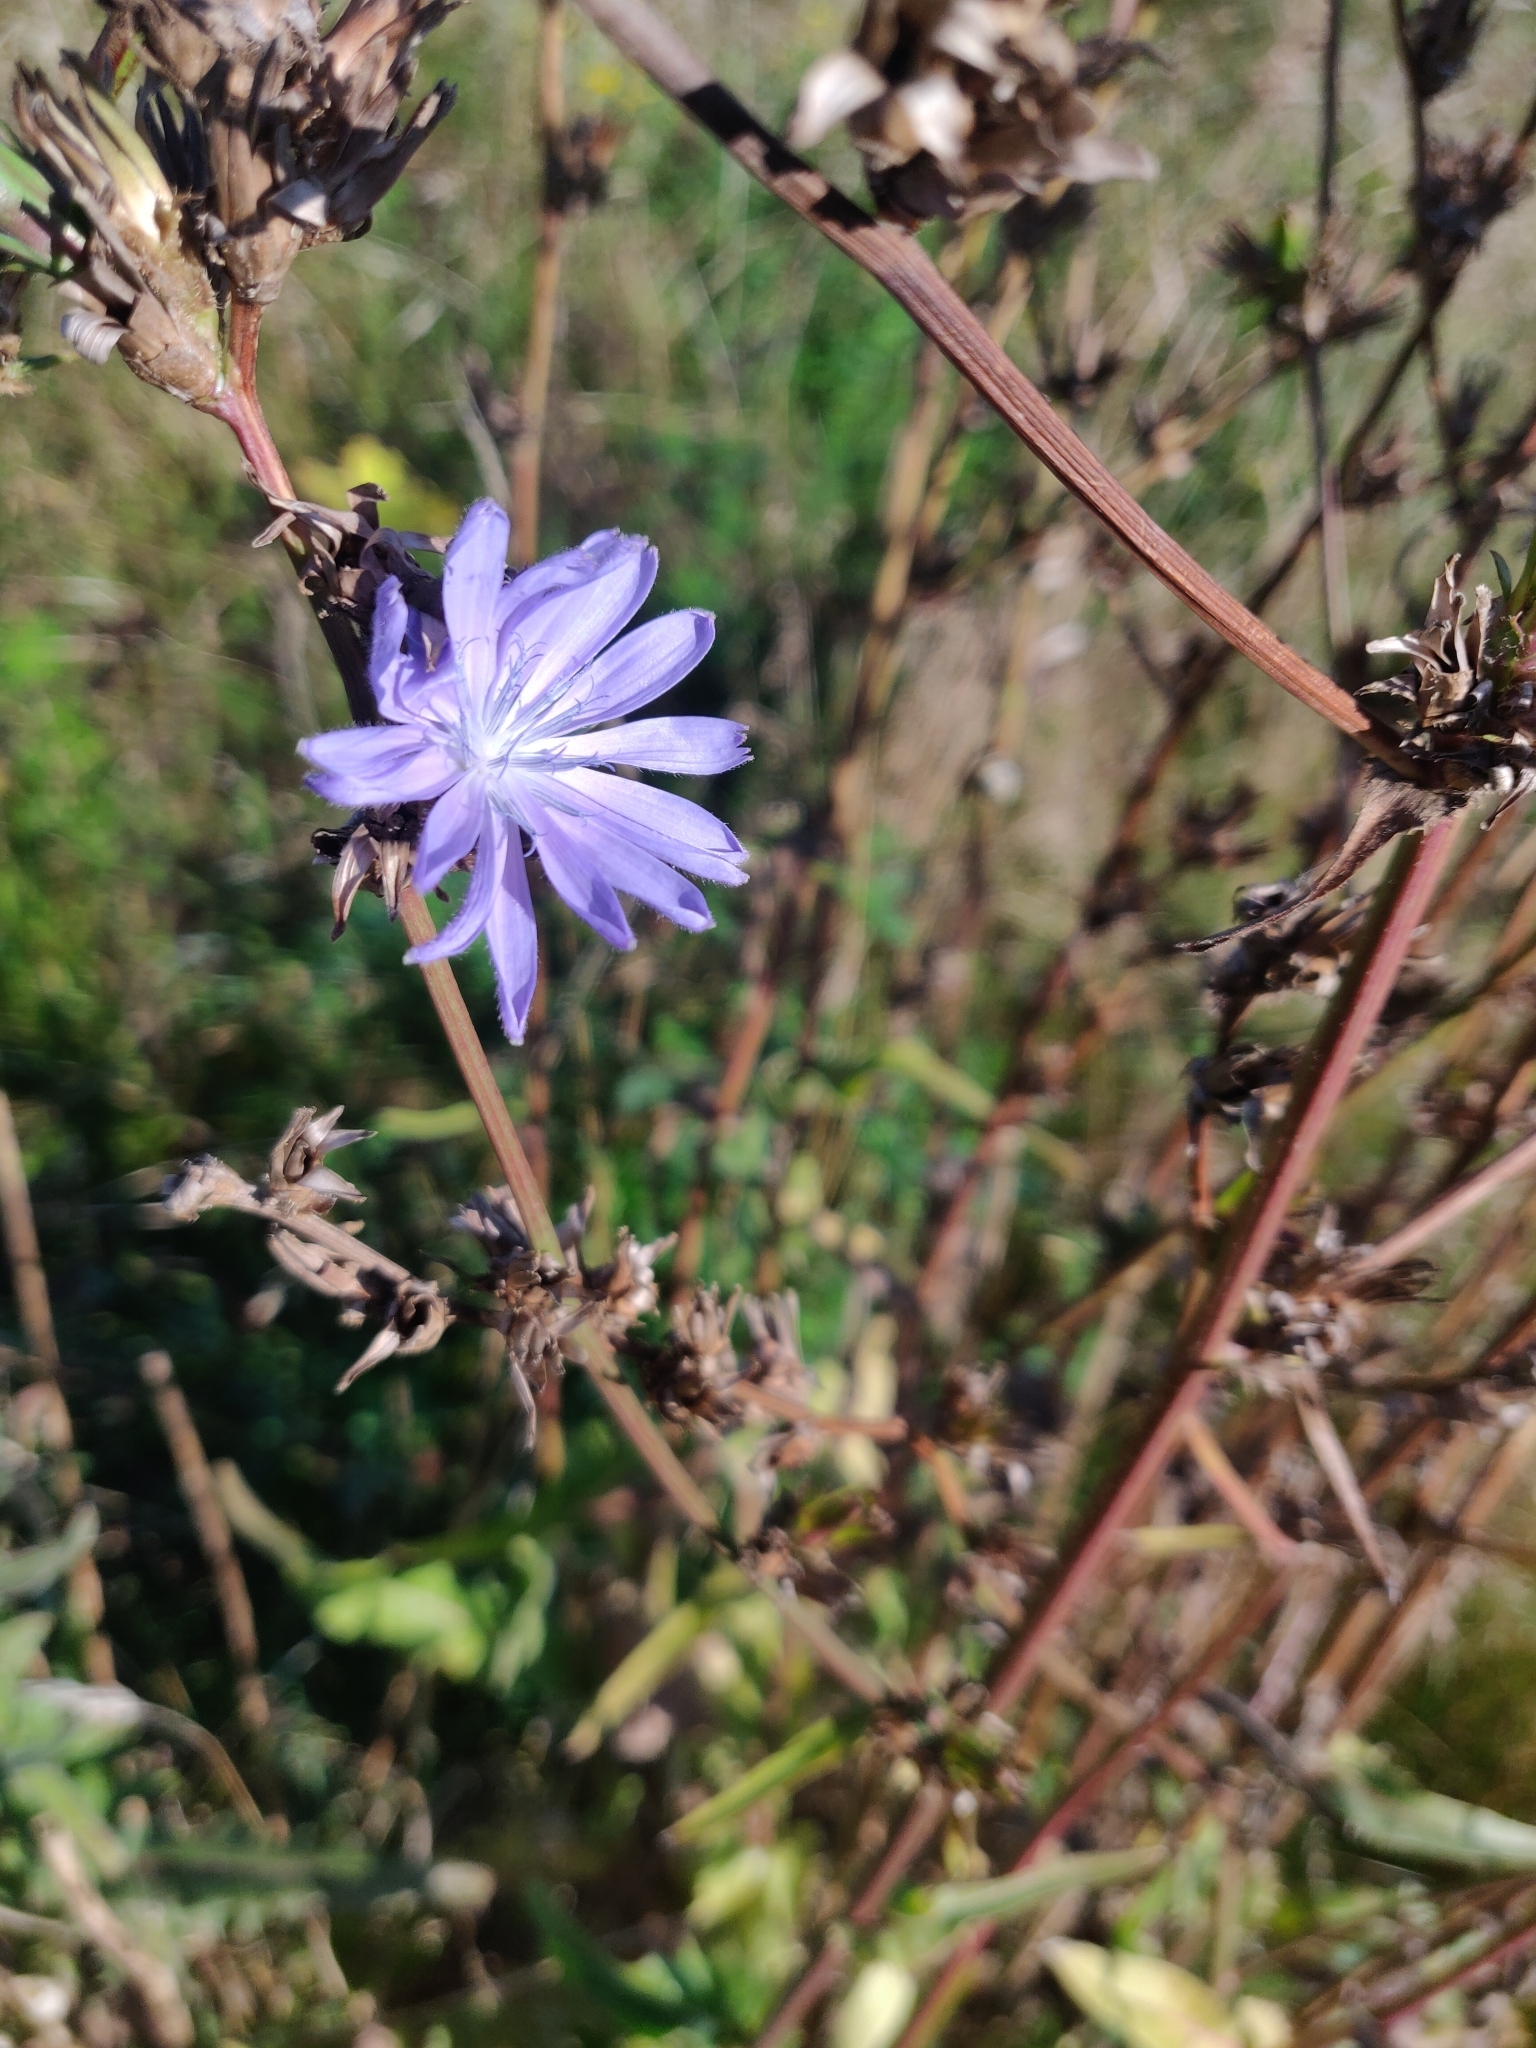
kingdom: Plantae
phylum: Tracheophyta
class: Magnoliopsida
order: Asterales
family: Asteraceae
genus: Cichorium
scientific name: Cichorium intybus
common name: Chicory
